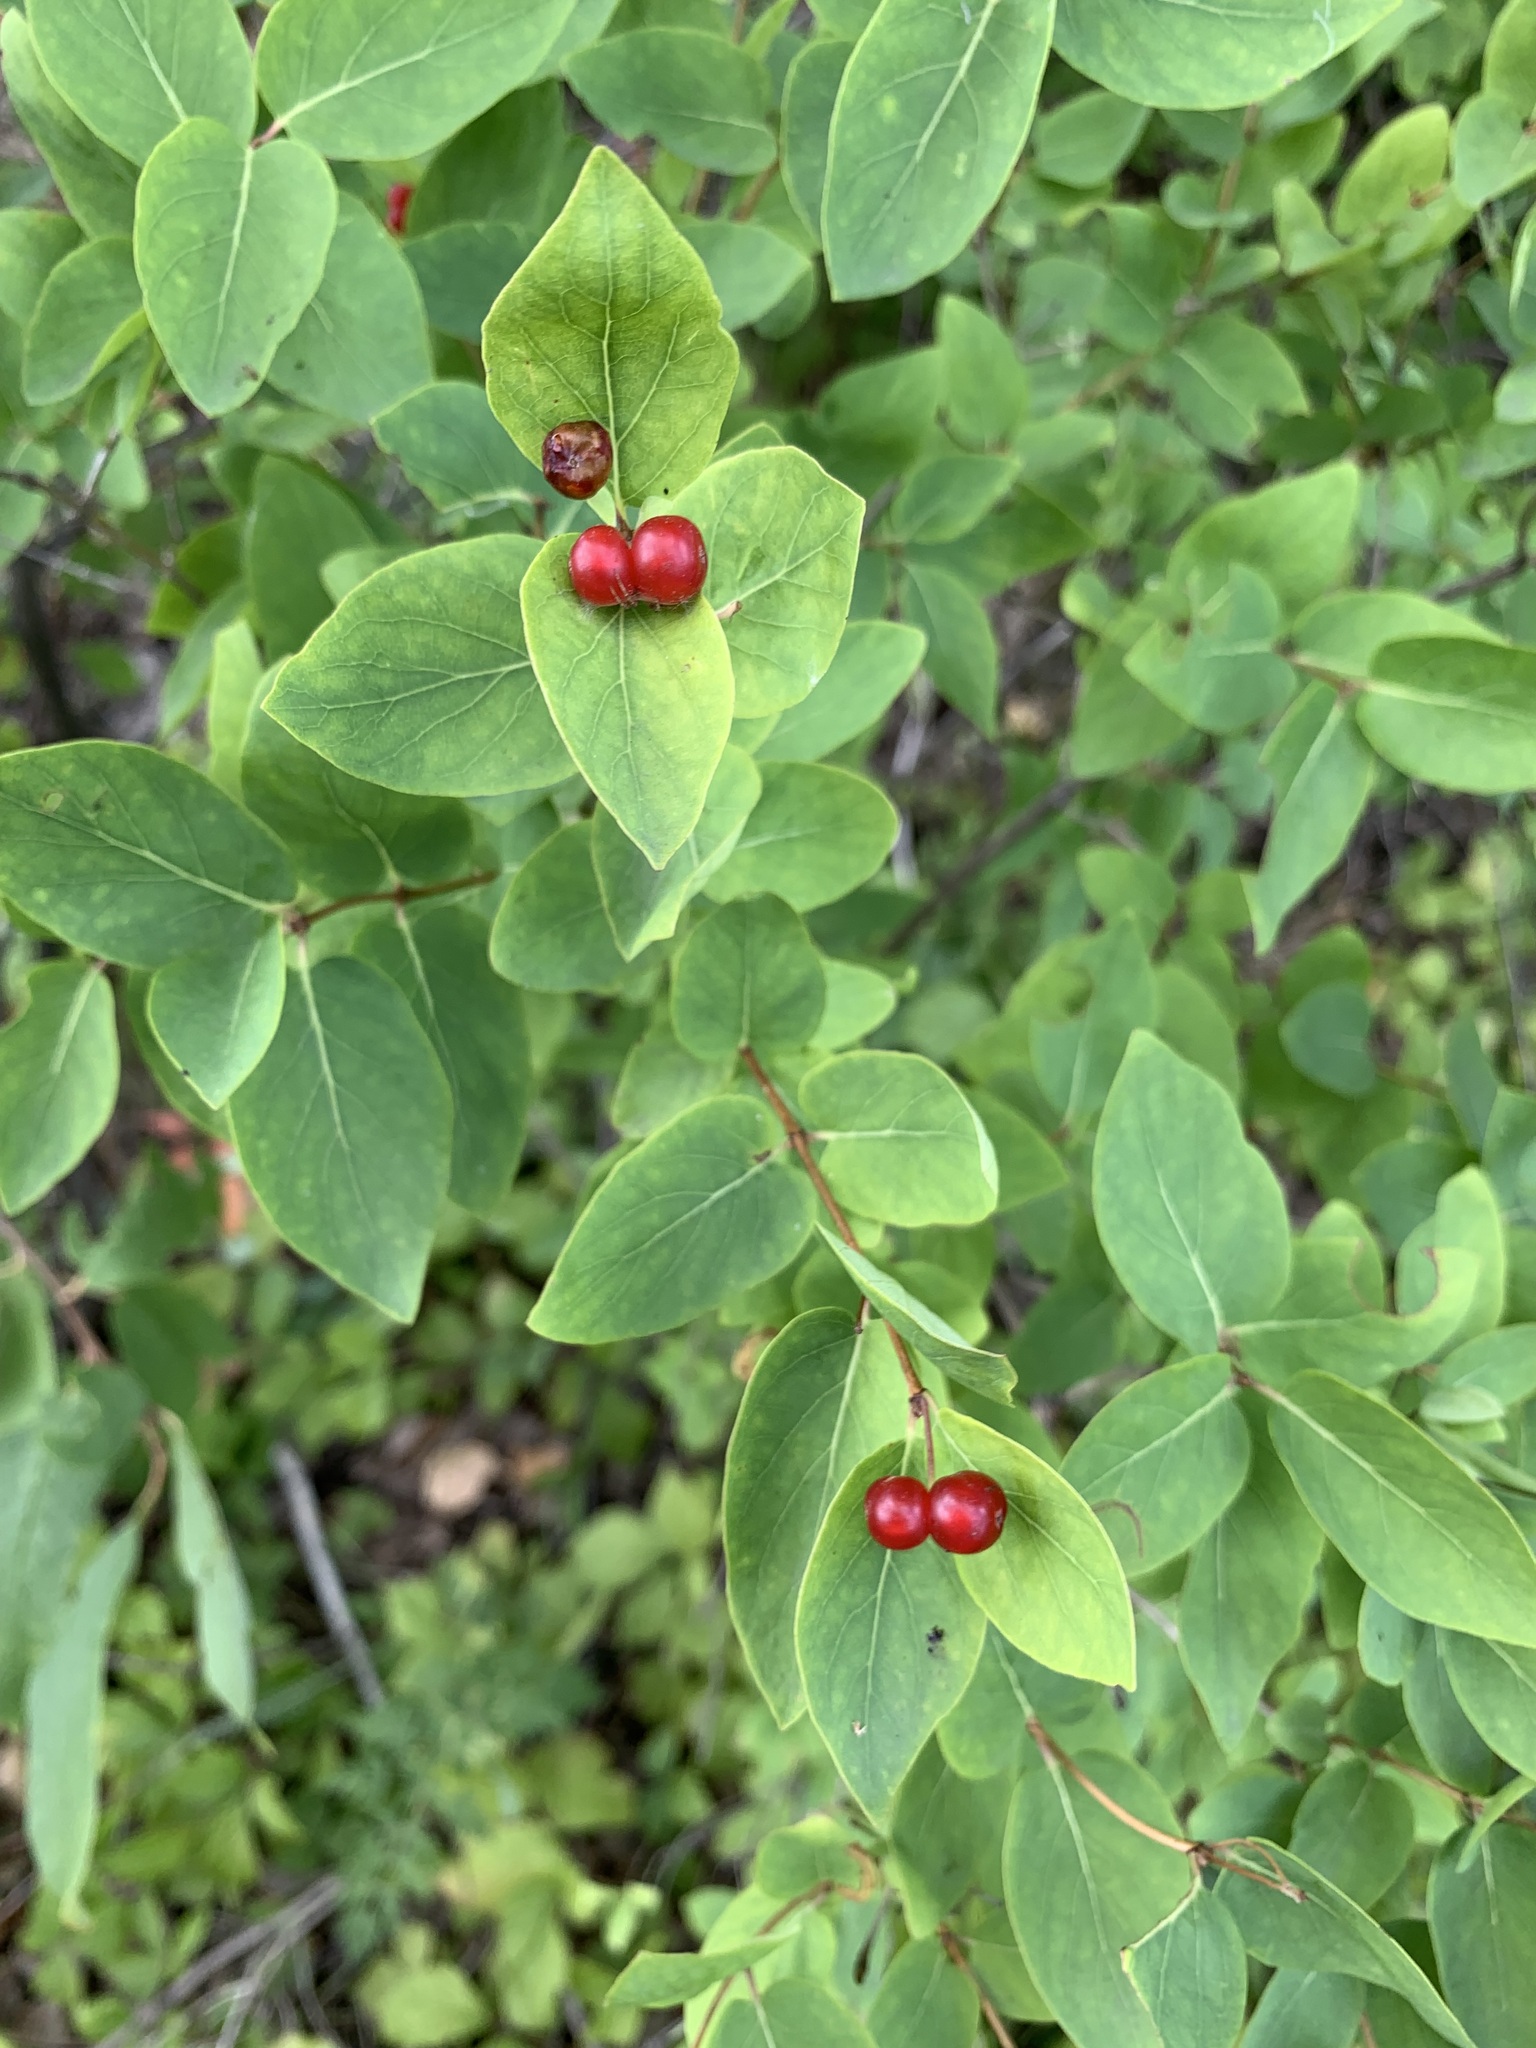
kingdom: Plantae
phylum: Tracheophyta
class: Magnoliopsida
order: Dipsacales
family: Caprifoliaceae
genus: Lonicera
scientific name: Lonicera tatarica
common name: Tatarian honeysuckle
